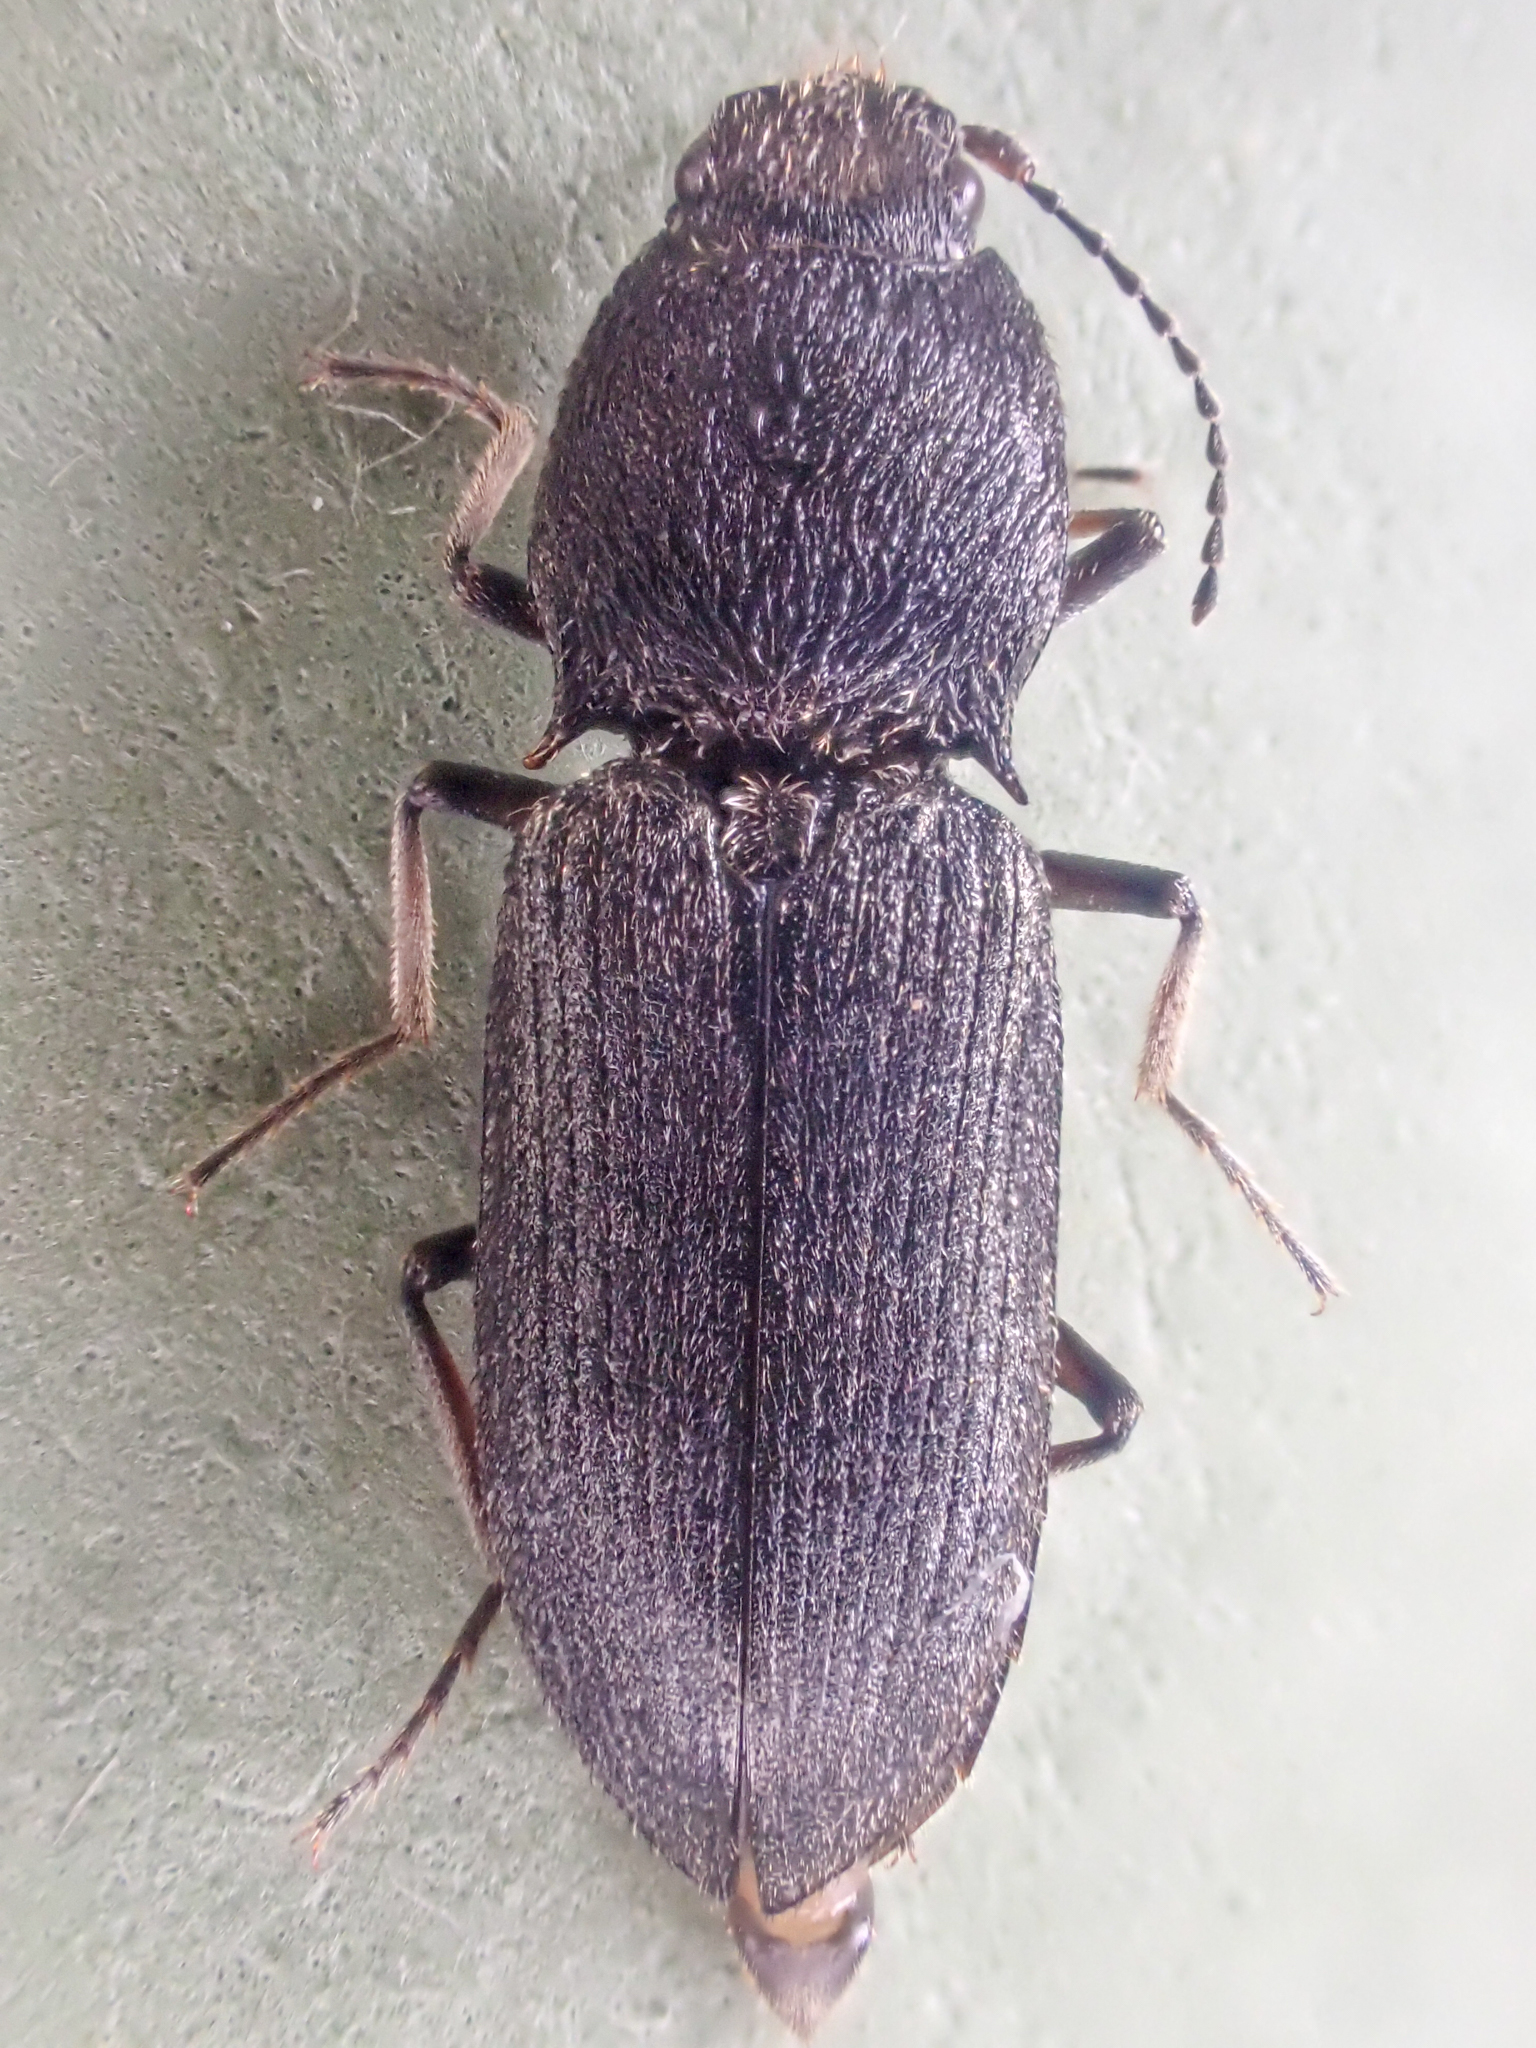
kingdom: Animalia
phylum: Arthropoda
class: Insecta
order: Coleoptera
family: Elateridae
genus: Ligmargus
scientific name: Ligmargus funebris
